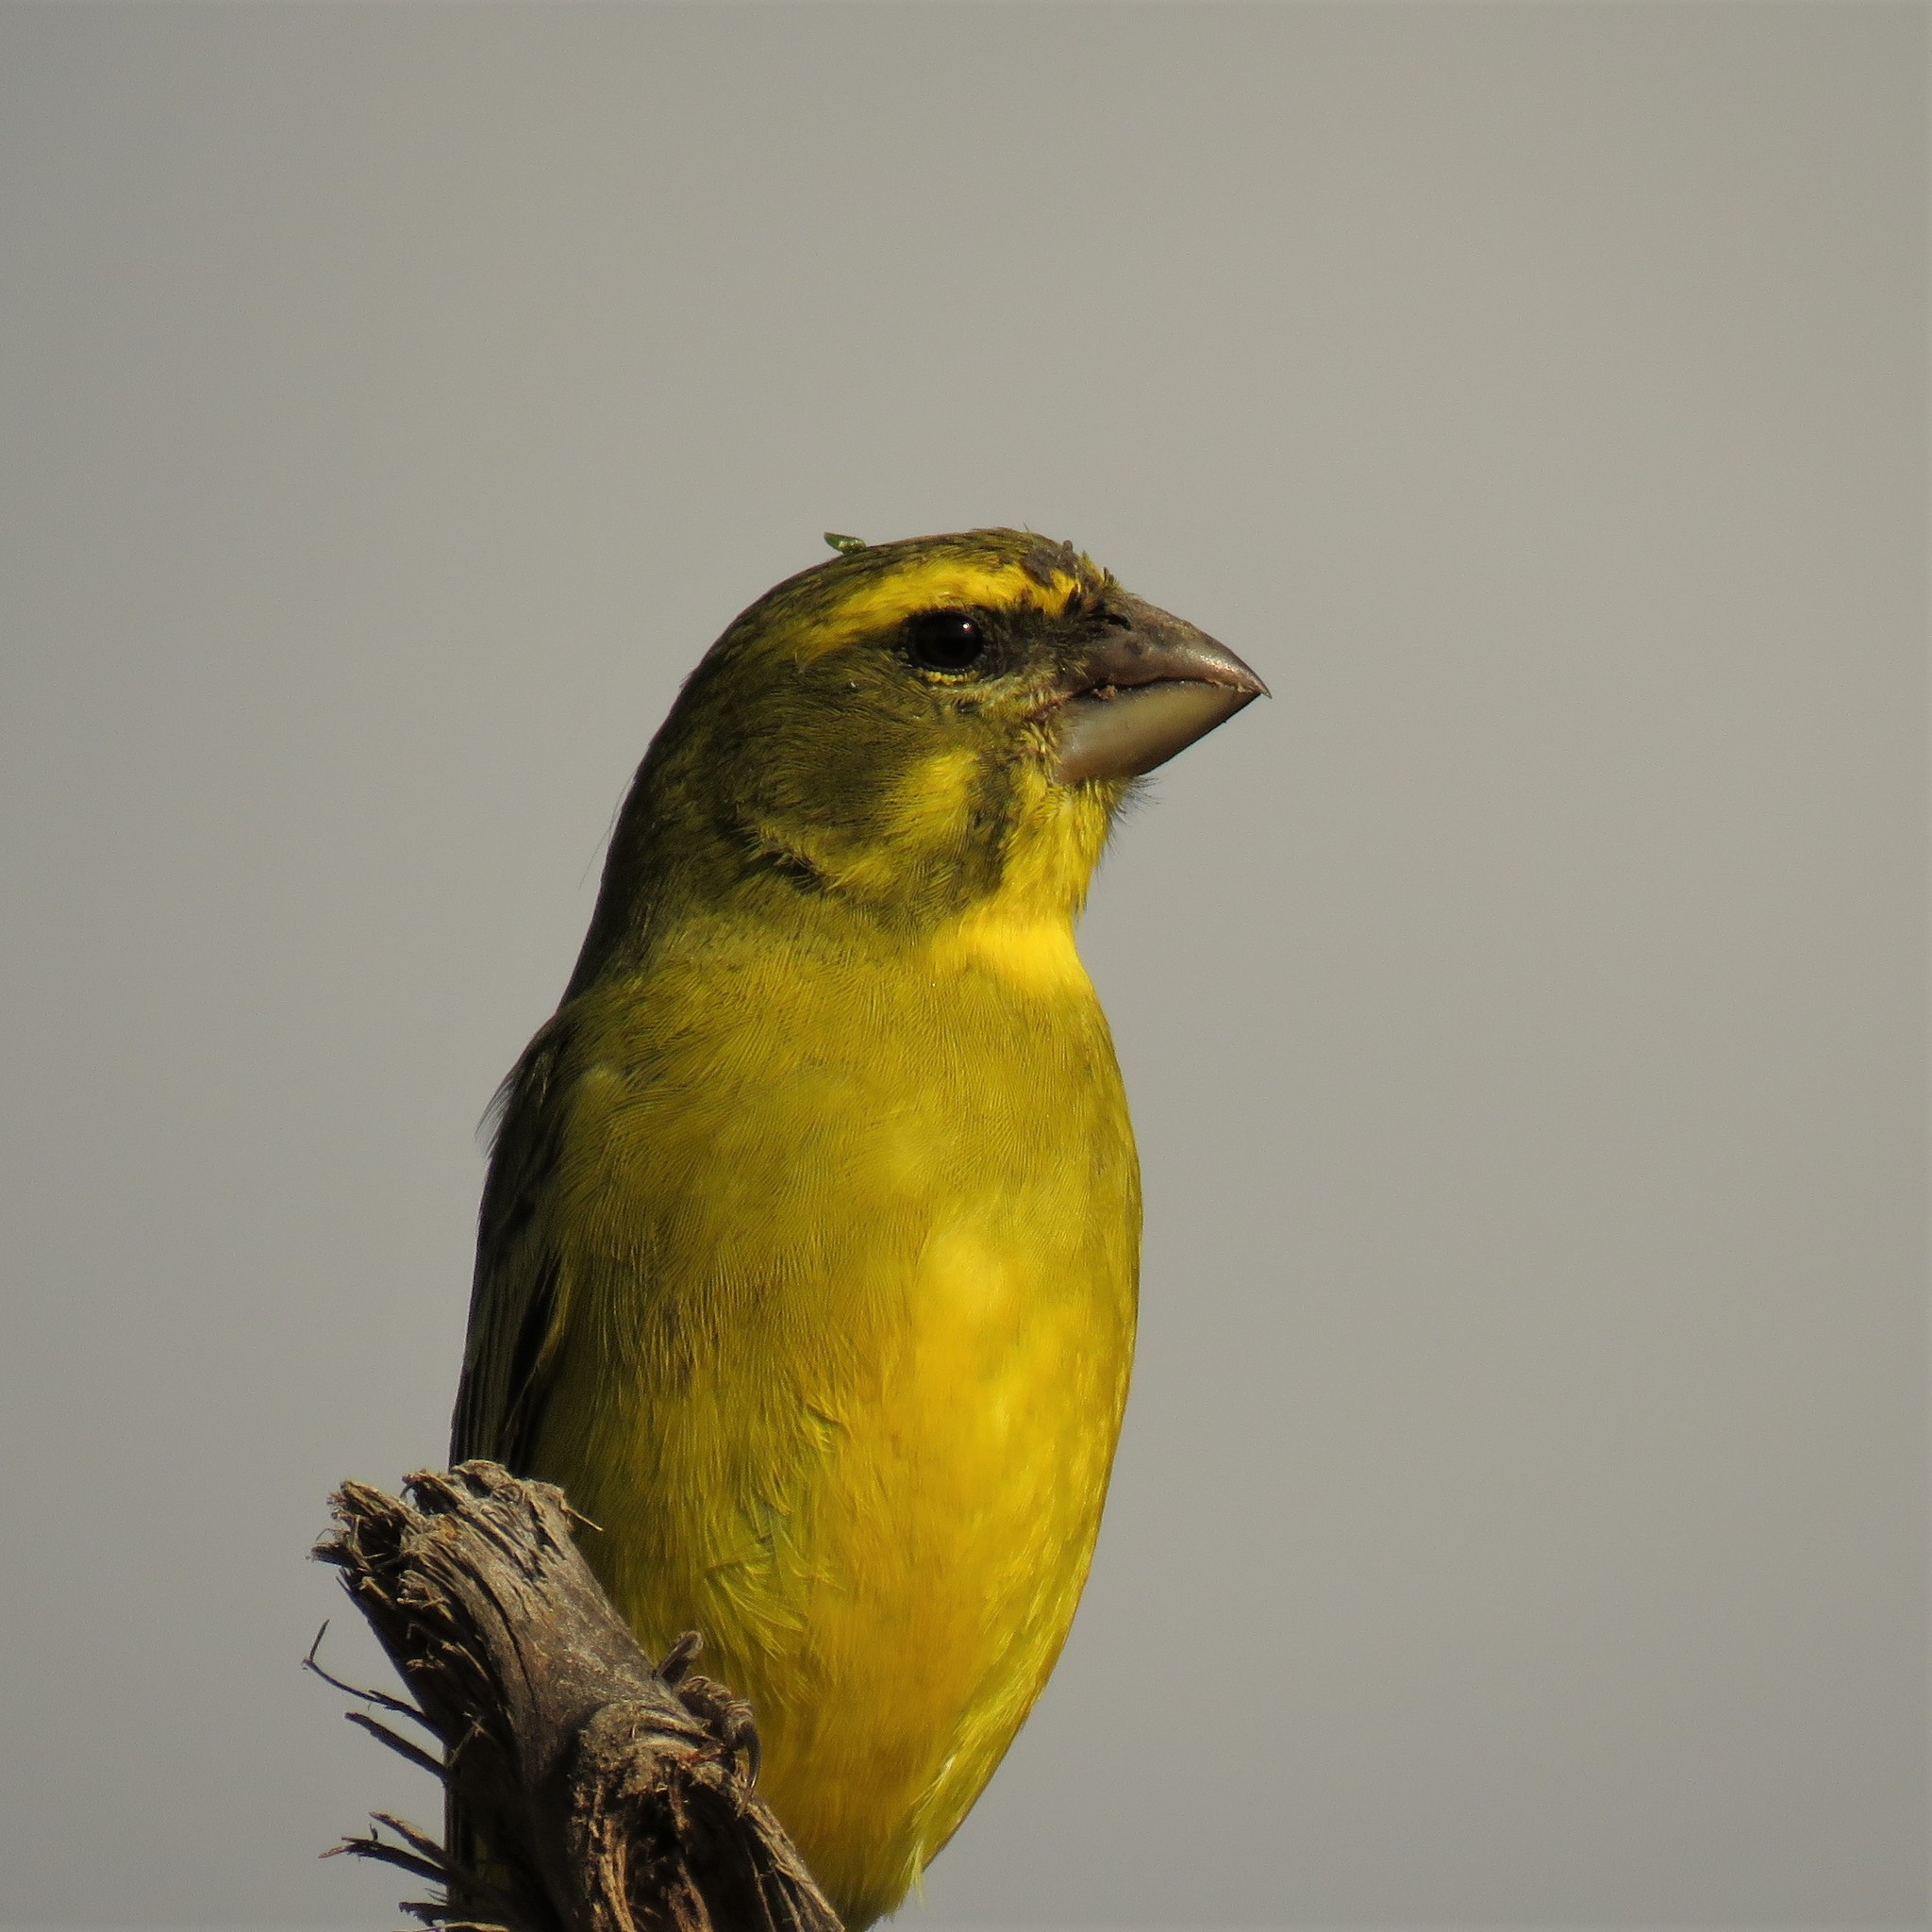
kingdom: Animalia
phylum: Chordata
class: Aves
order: Passeriformes
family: Fringillidae
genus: Crithagra
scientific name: Crithagra sulphurata
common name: Brimstone canary
